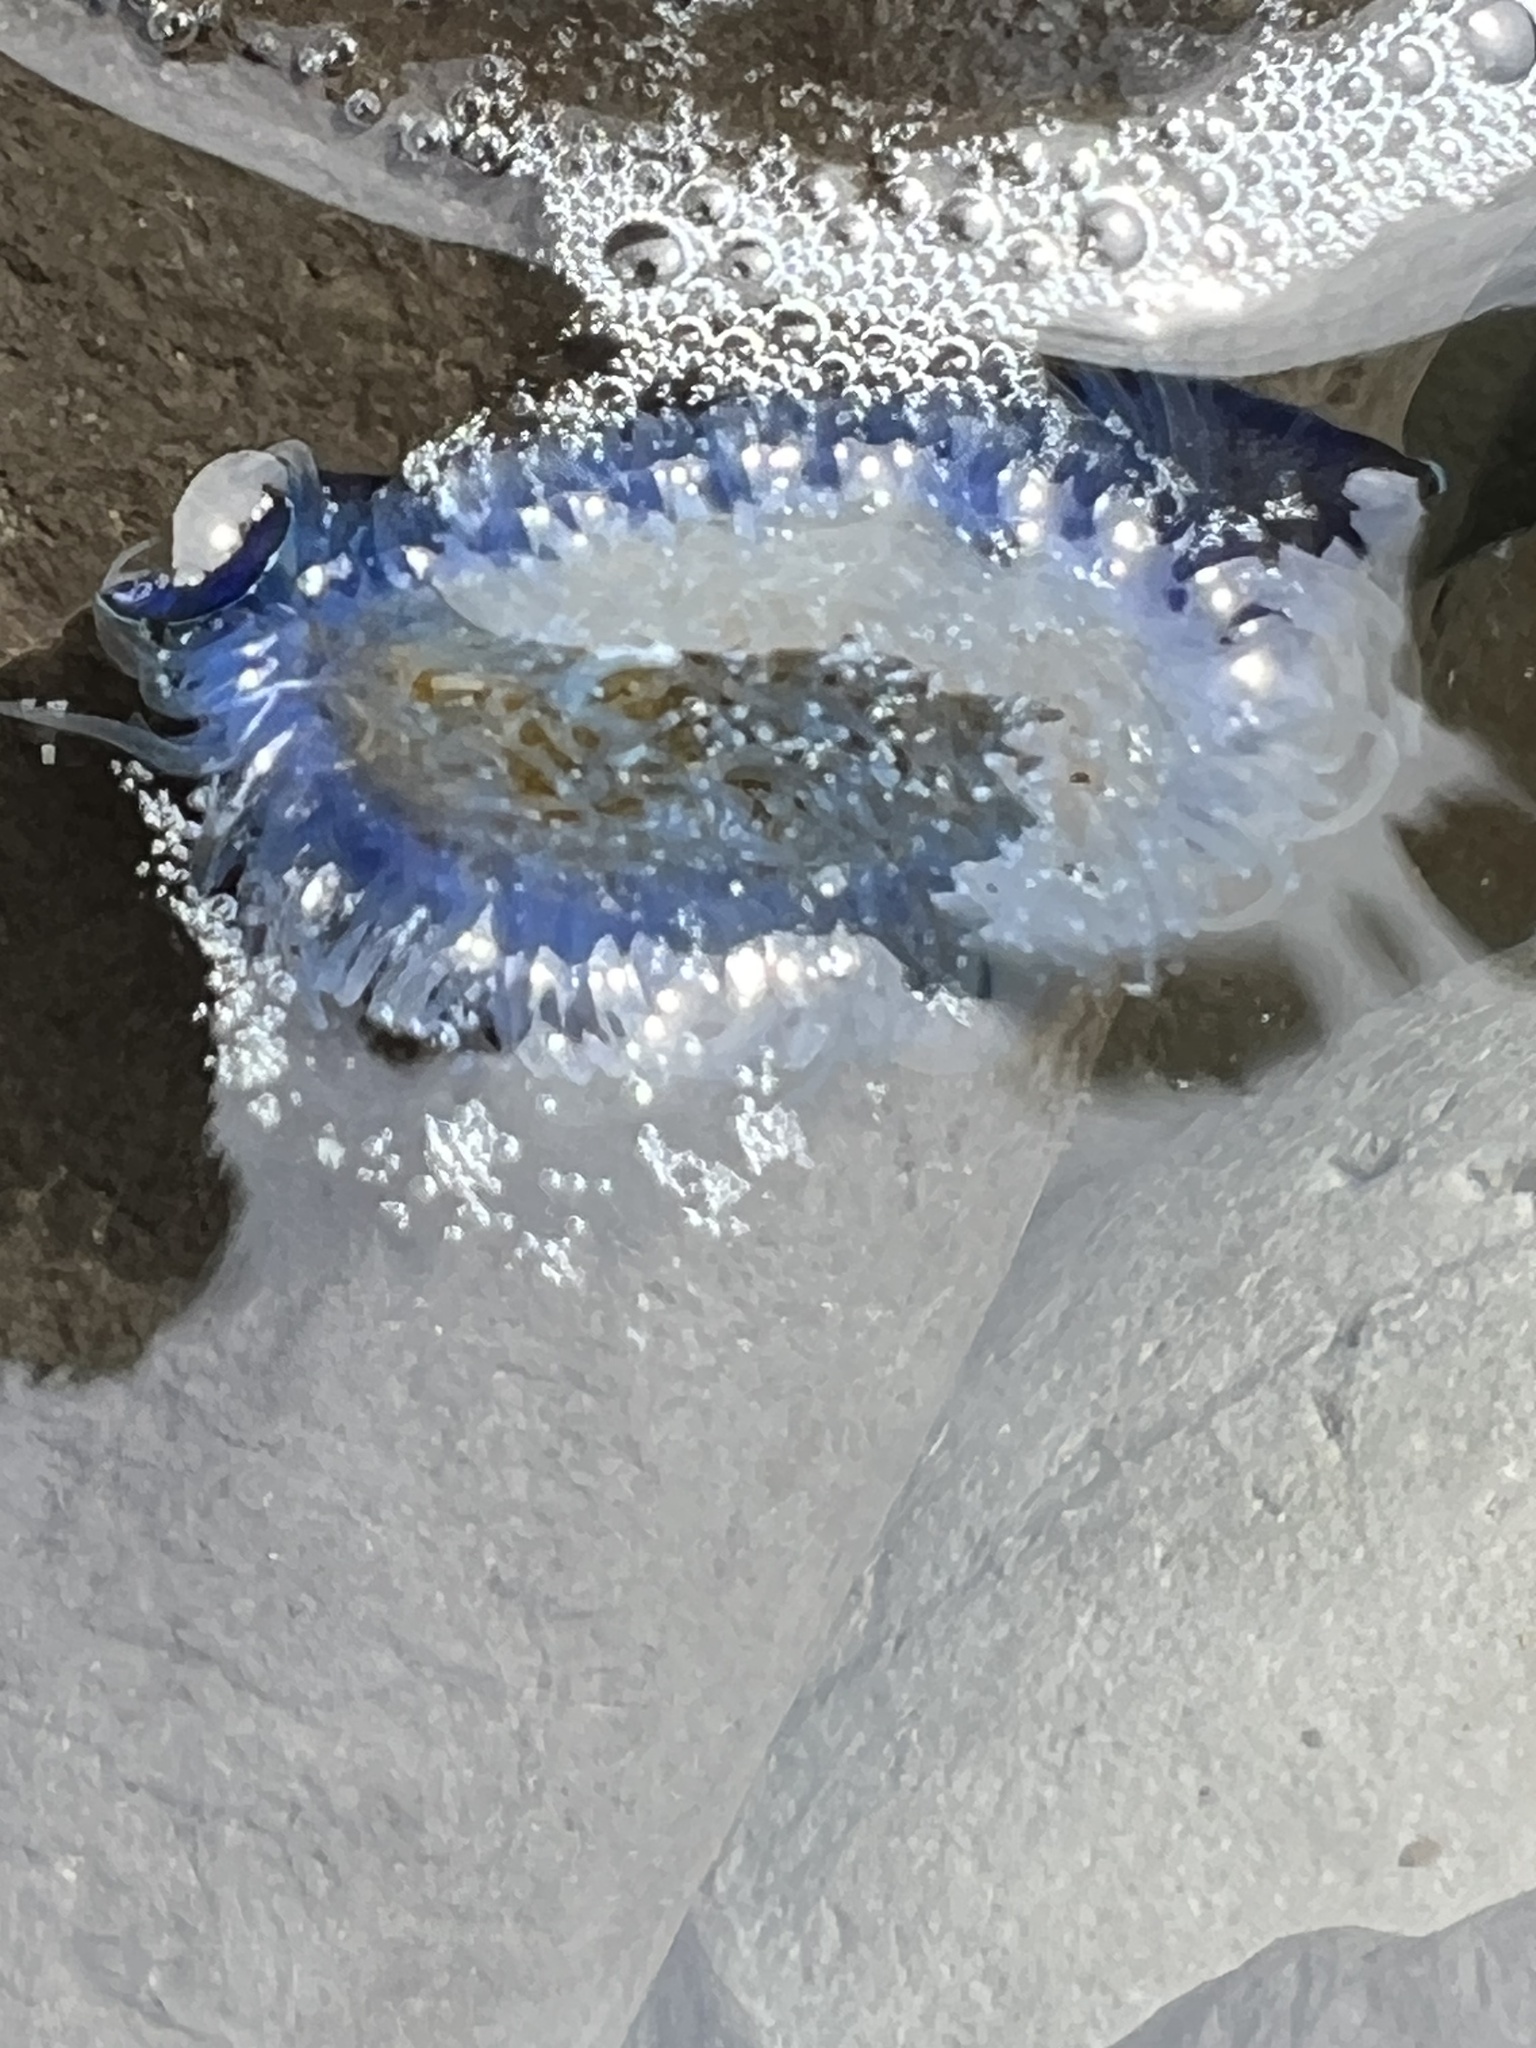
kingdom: Animalia
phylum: Cnidaria
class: Hydrozoa
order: Anthoathecata
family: Porpitidae
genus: Velella
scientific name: Velella velella
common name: By-the-wind-sailor
